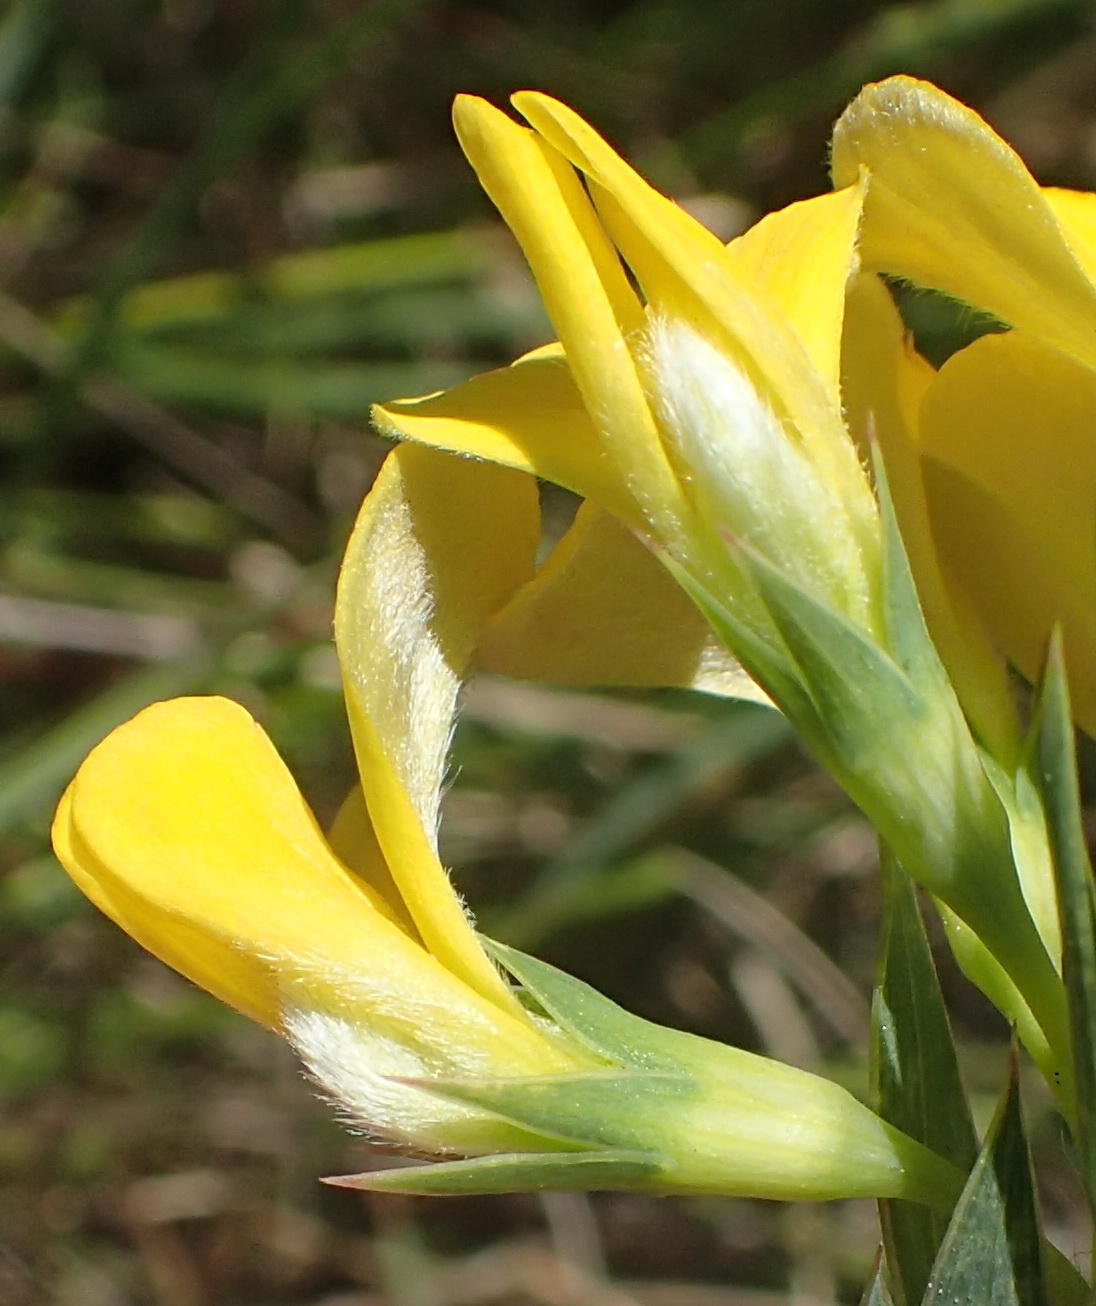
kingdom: Plantae
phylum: Tracheophyta
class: Magnoliopsida
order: Fabales
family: Fabaceae
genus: Aspalathus
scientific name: Aspalathus angustifolia
